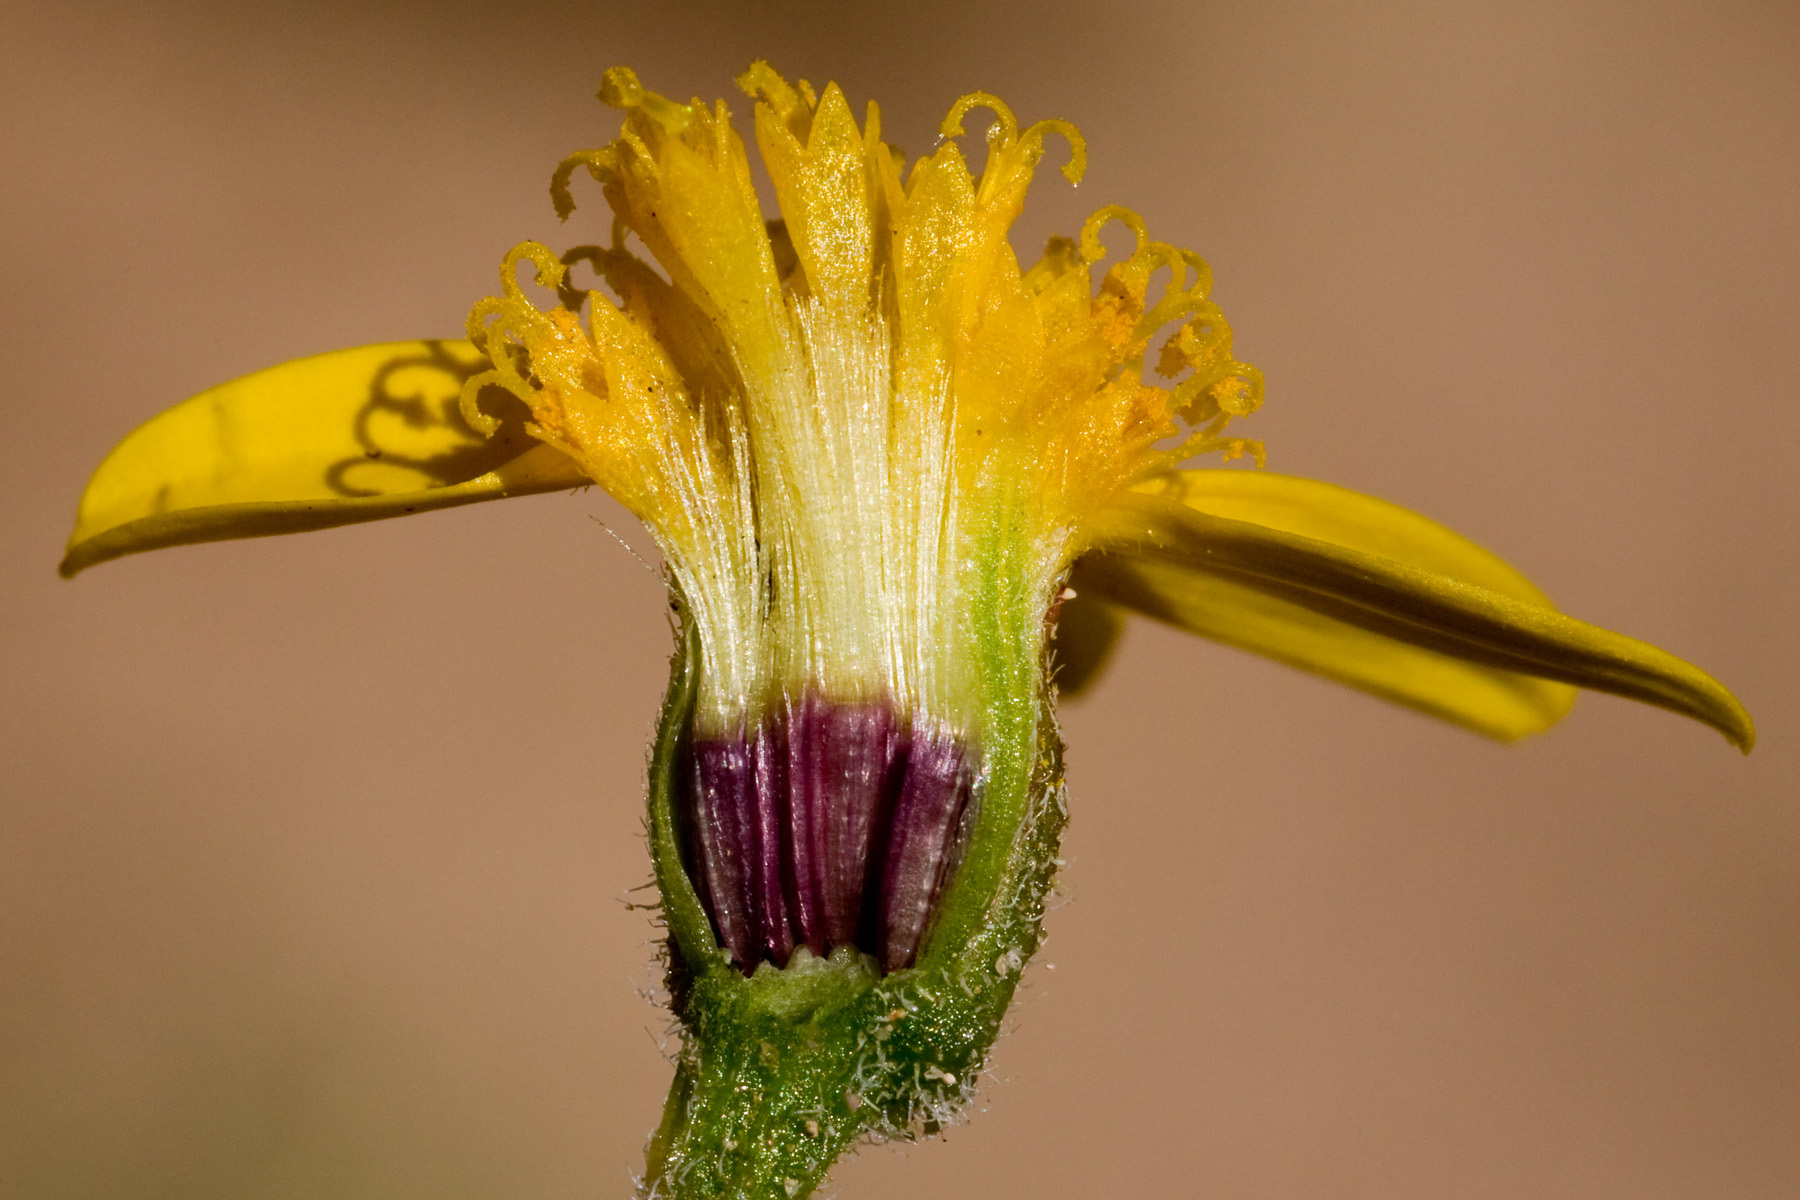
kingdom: Plantae
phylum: Tracheophyta
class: Magnoliopsida
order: Asterales
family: Asteraceae
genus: Bartlettia
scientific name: Bartlettia scaposa
